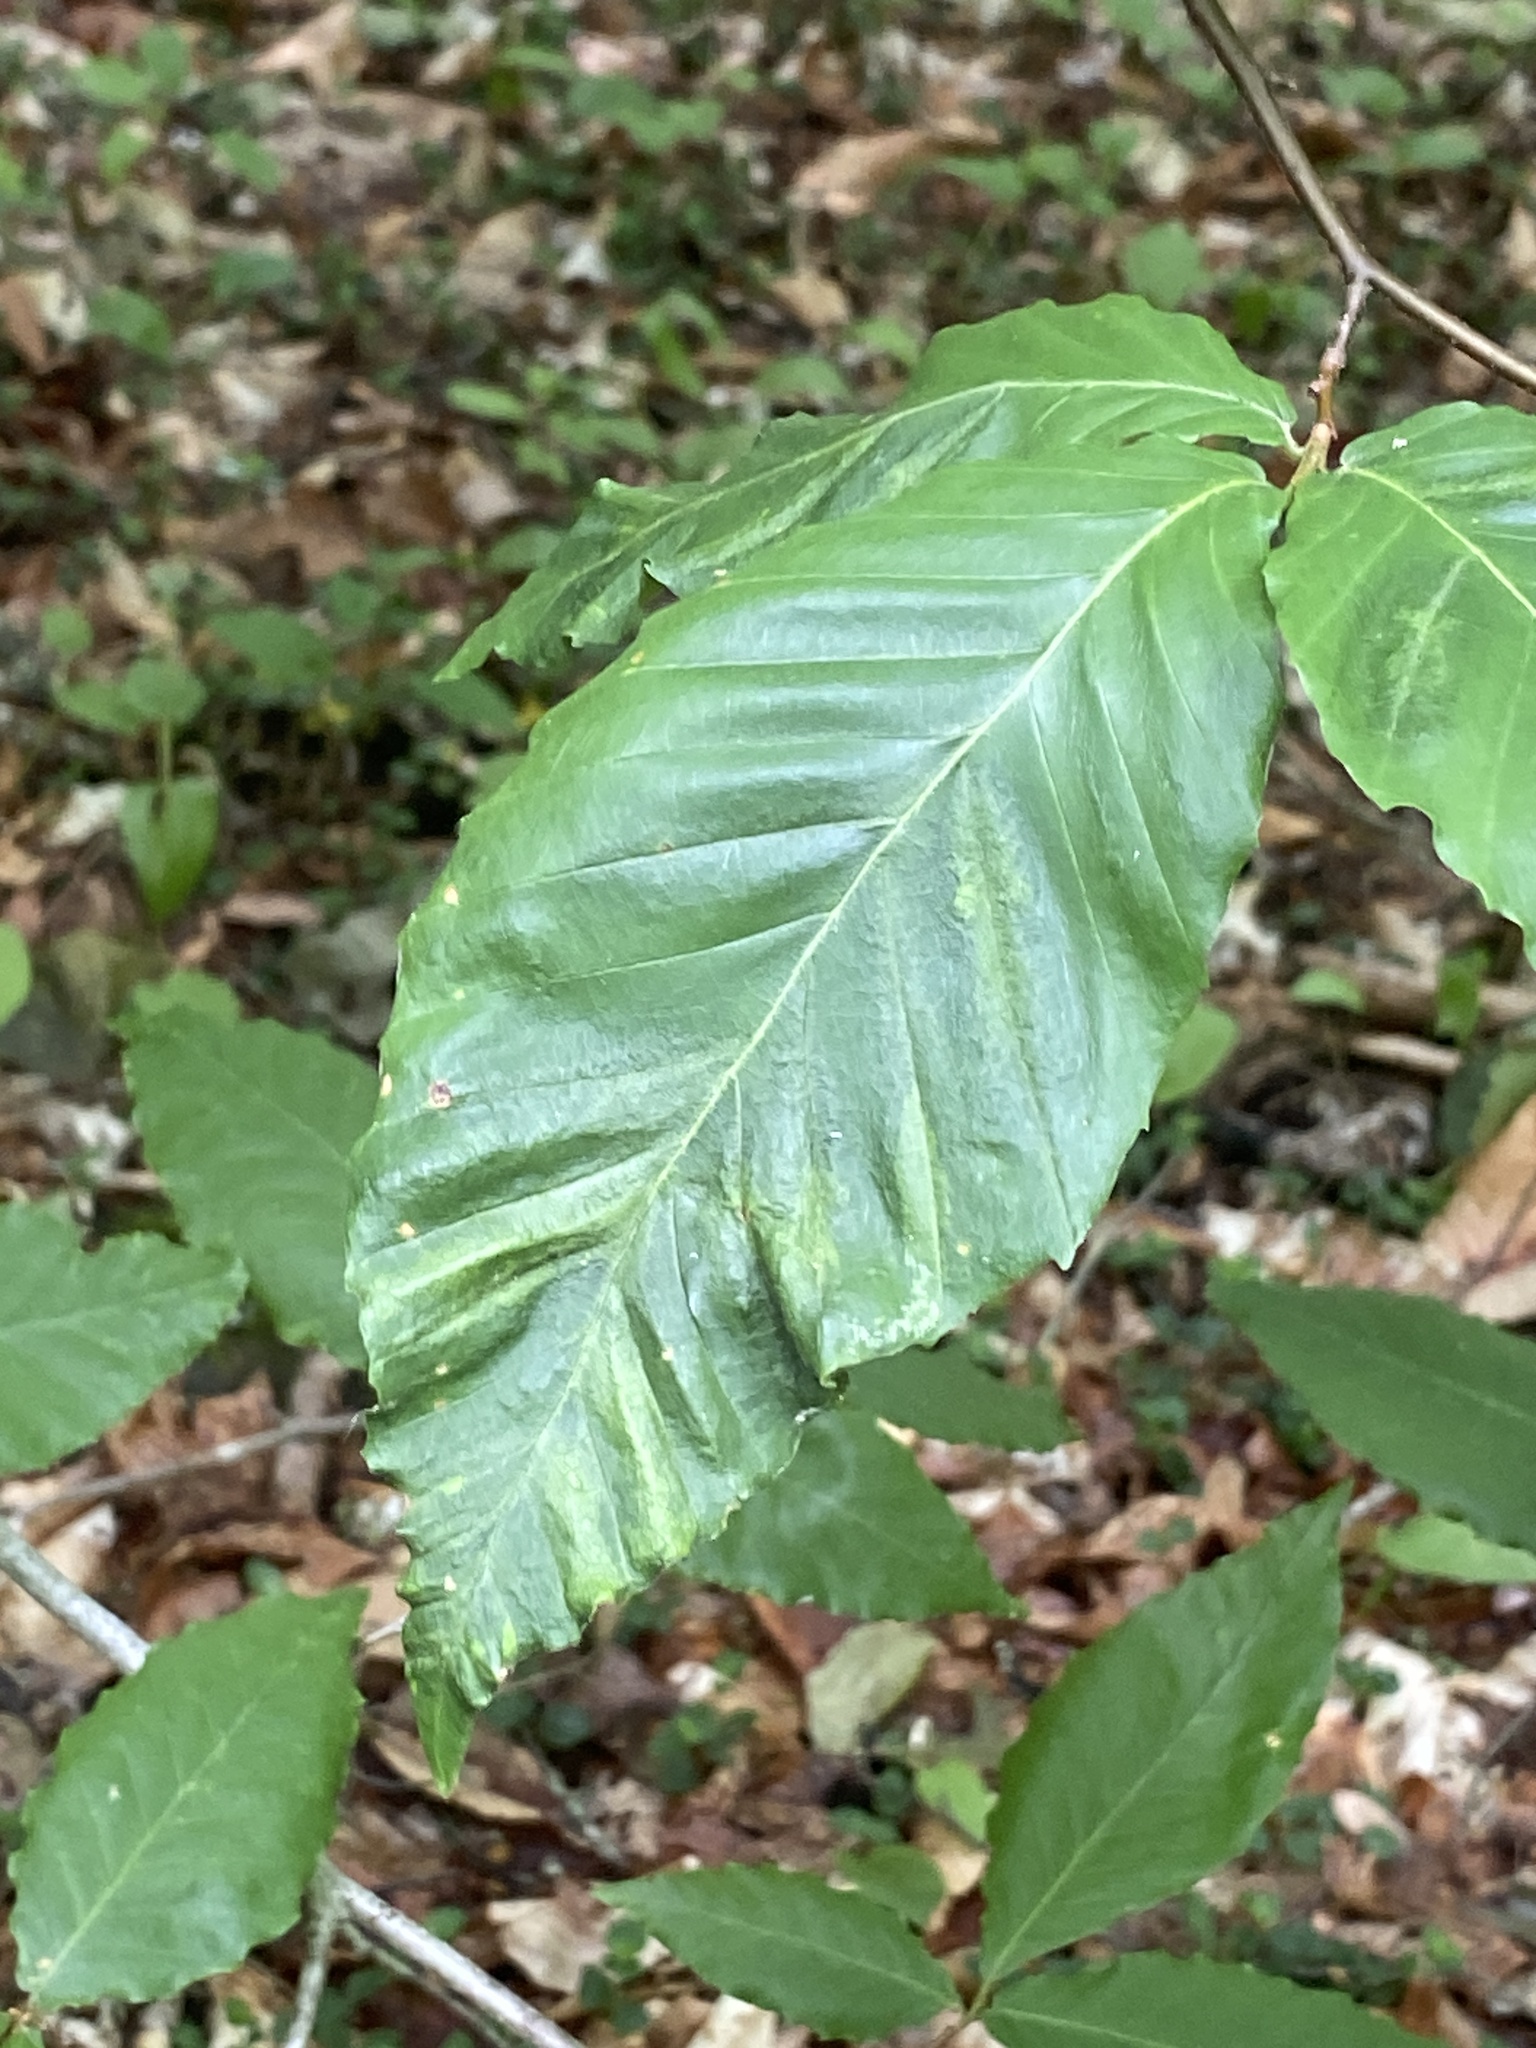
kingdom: Animalia
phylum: Nematoda
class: Chromadorea
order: Rhabditida
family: Anguinidae
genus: Litylenchus
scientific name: Litylenchus crenatae
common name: Beech leaf disease
